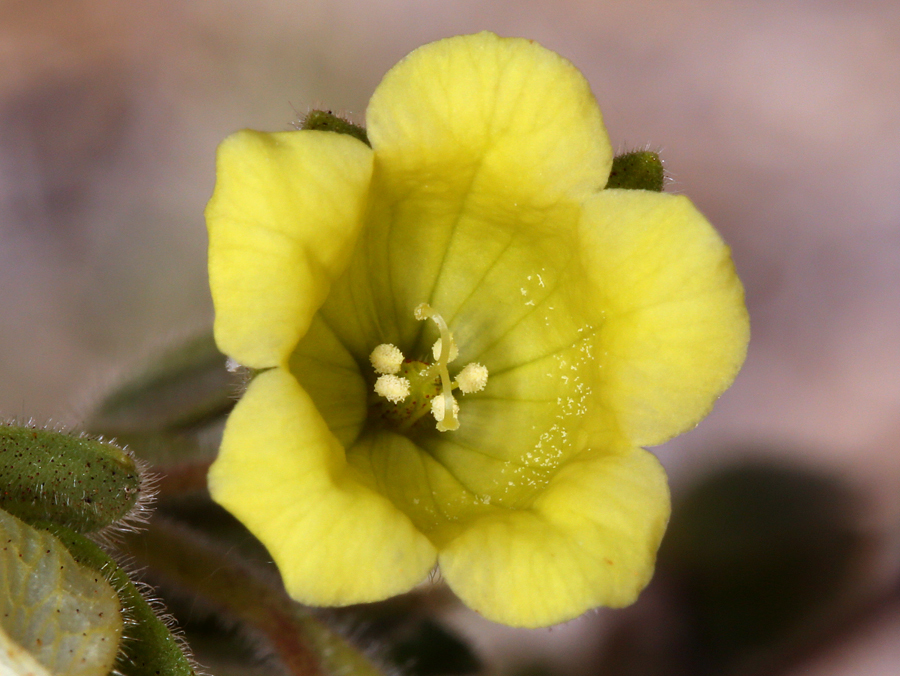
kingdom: Plantae
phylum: Tracheophyta
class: Magnoliopsida
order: Boraginales
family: Hydrophyllaceae
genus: Emmenanthe
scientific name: Emmenanthe penduliflora
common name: Whispering-bells
